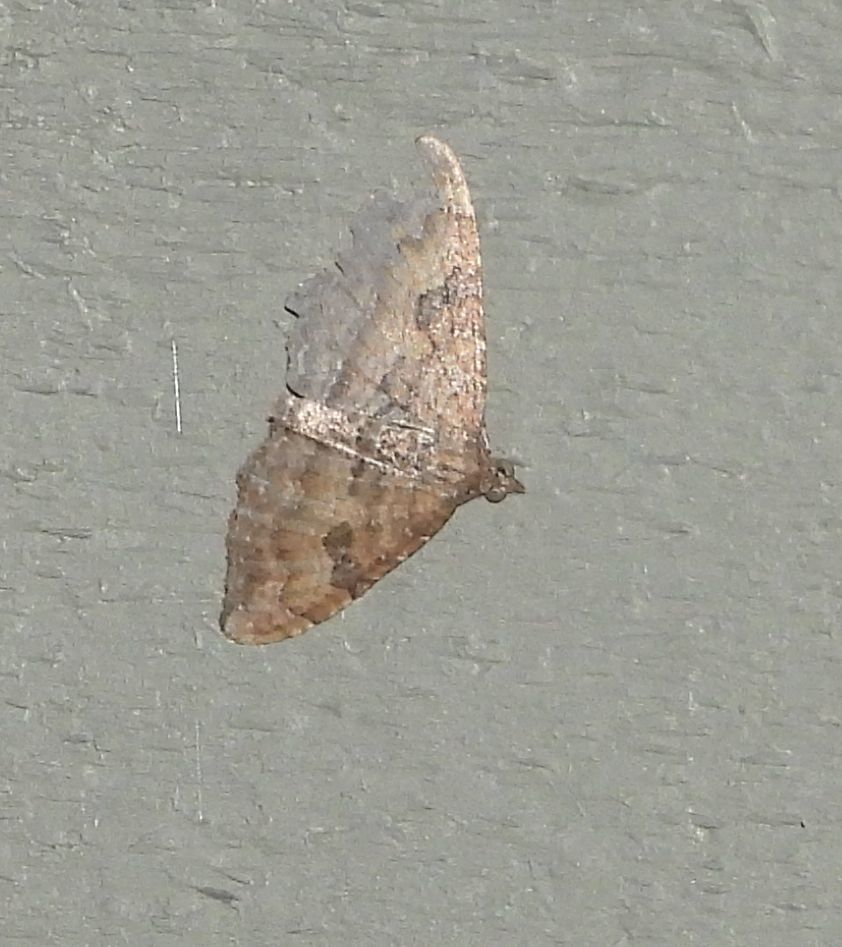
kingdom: Animalia
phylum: Arthropoda
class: Insecta
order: Lepidoptera
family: Geometridae
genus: Orthonama
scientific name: Orthonama obstipata
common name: The gem
